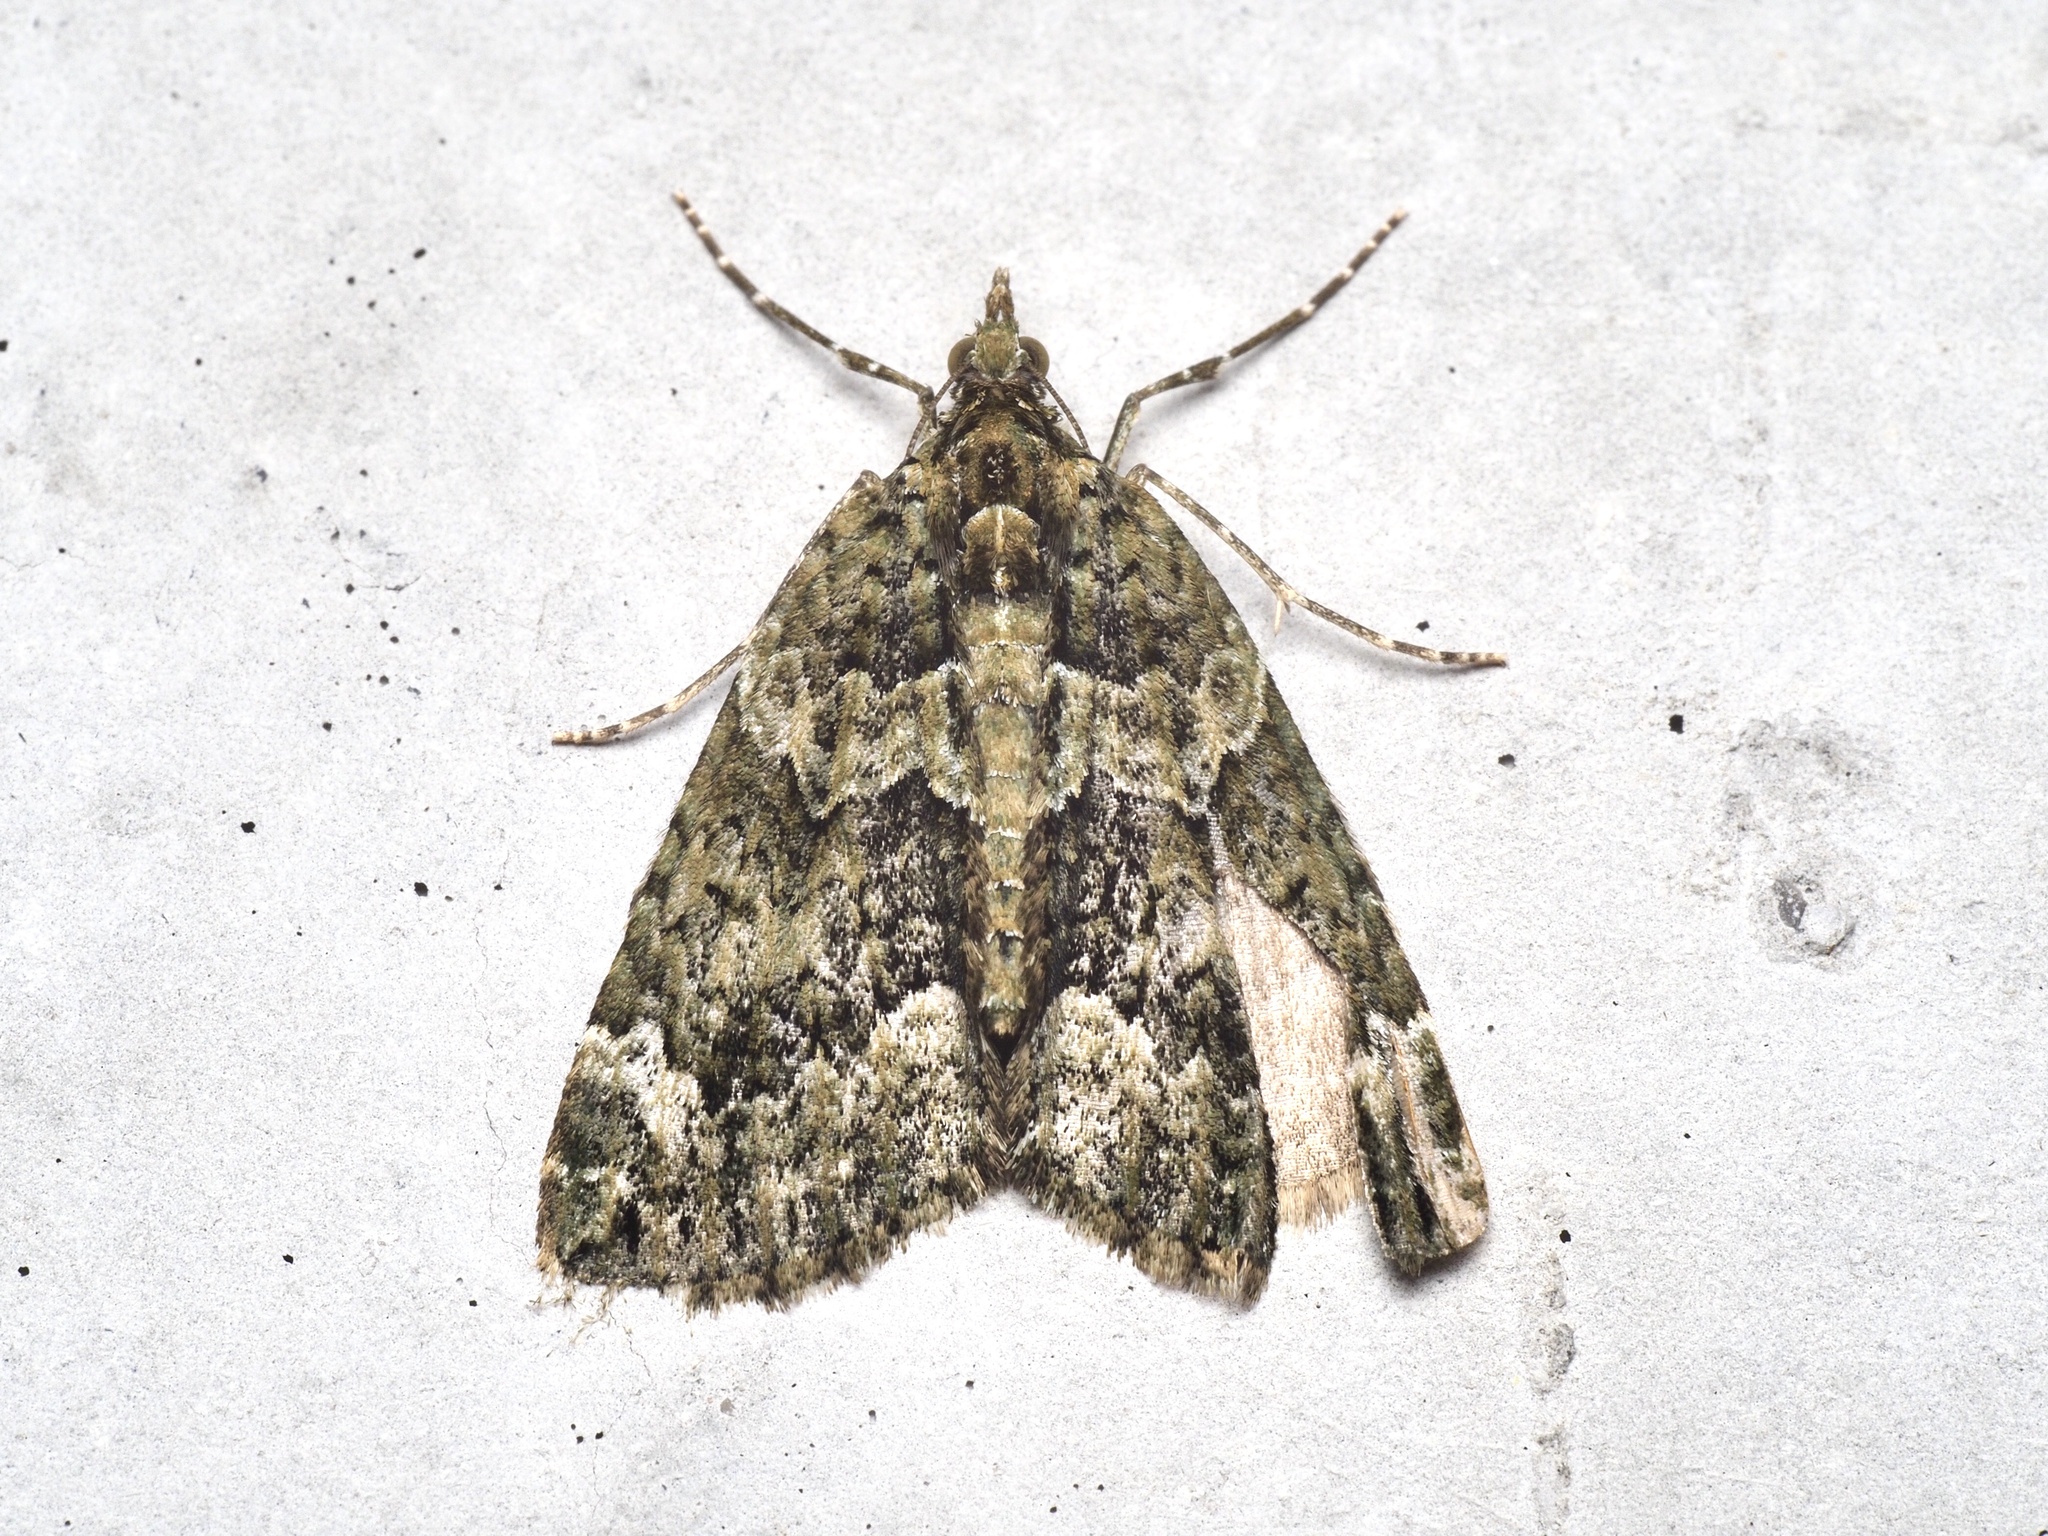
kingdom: Animalia
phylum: Arthropoda
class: Insecta
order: Lepidoptera
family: Geometridae
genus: Chloroclysta
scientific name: Chloroclysta siterata
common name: Red-green carpet
